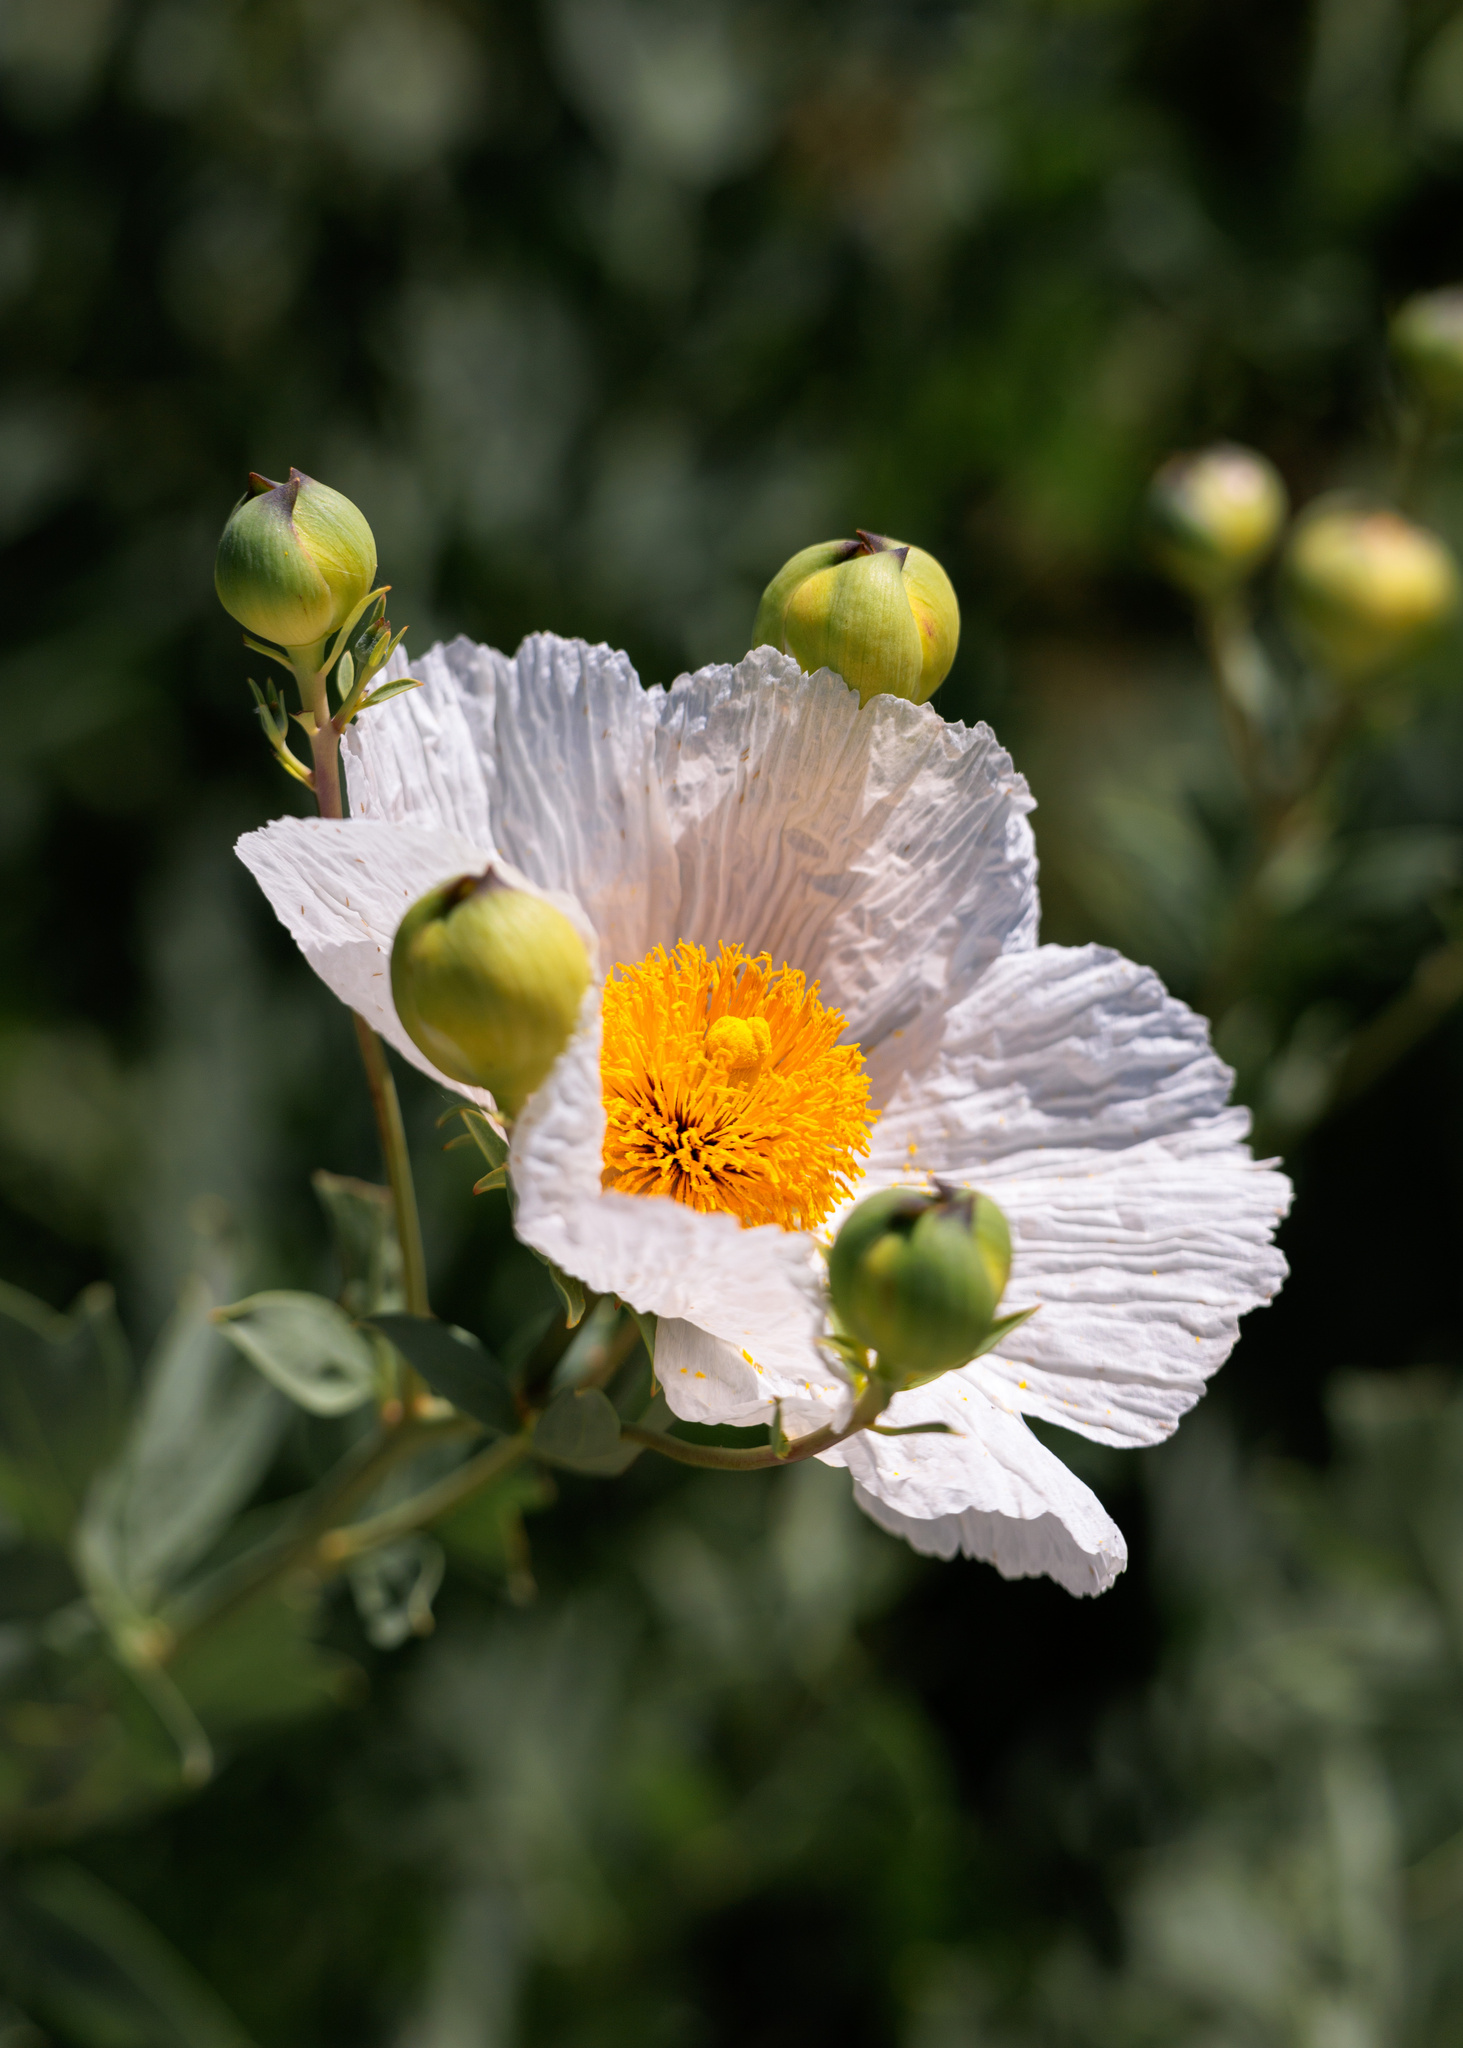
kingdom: Plantae
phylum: Tracheophyta
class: Magnoliopsida
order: Ranunculales
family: Papaveraceae
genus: Romneya
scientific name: Romneya coulteri
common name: California tree-poppy
